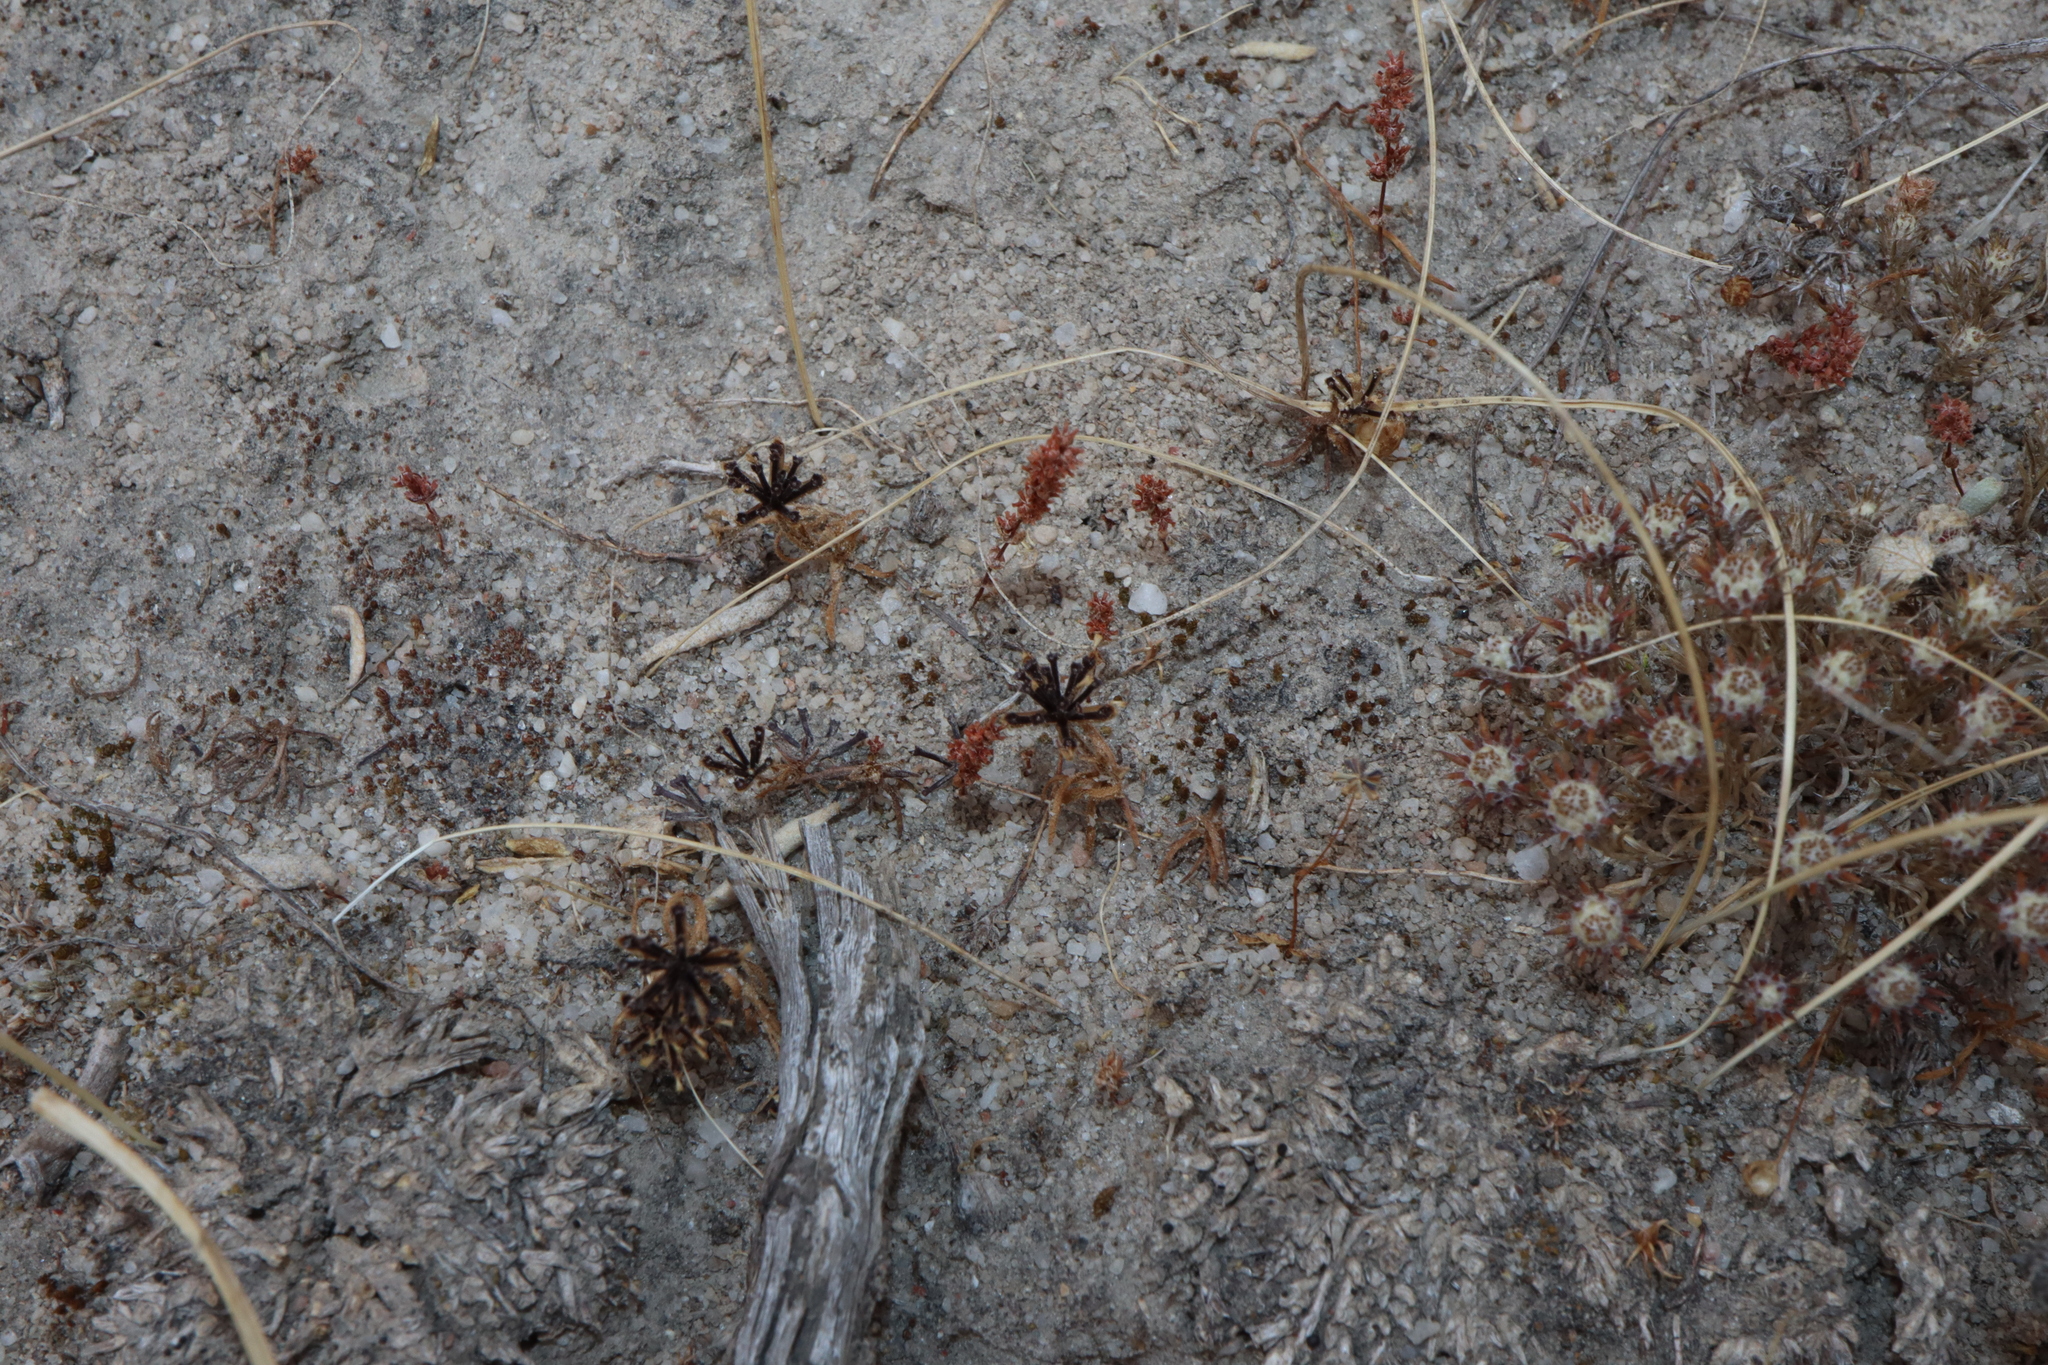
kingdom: Plantae
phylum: Tracheophyta
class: Magnoliopsida
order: Asterales
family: Asteraceae
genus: Pogonolepis
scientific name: Pogonolepis muelleriana
